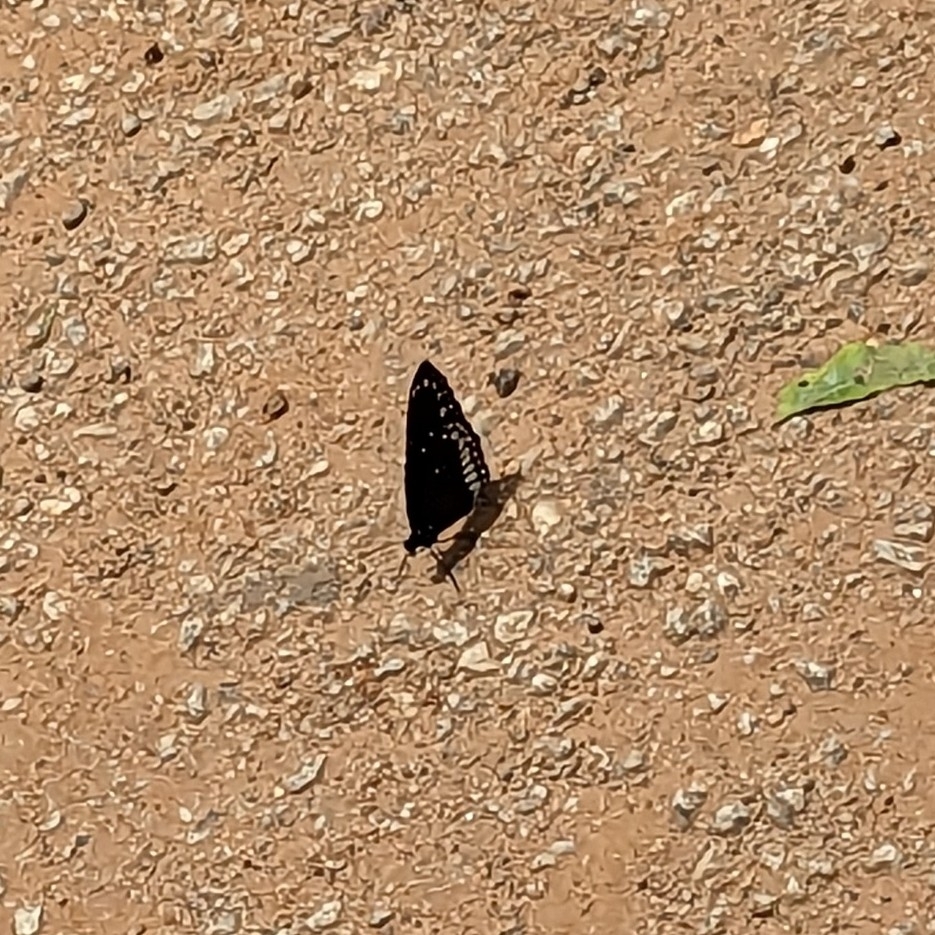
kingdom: Animalia
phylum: Arthropoda
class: Insecta
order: Lepidoptera
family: Nymphalidae
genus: Euploea
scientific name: Euploea core
